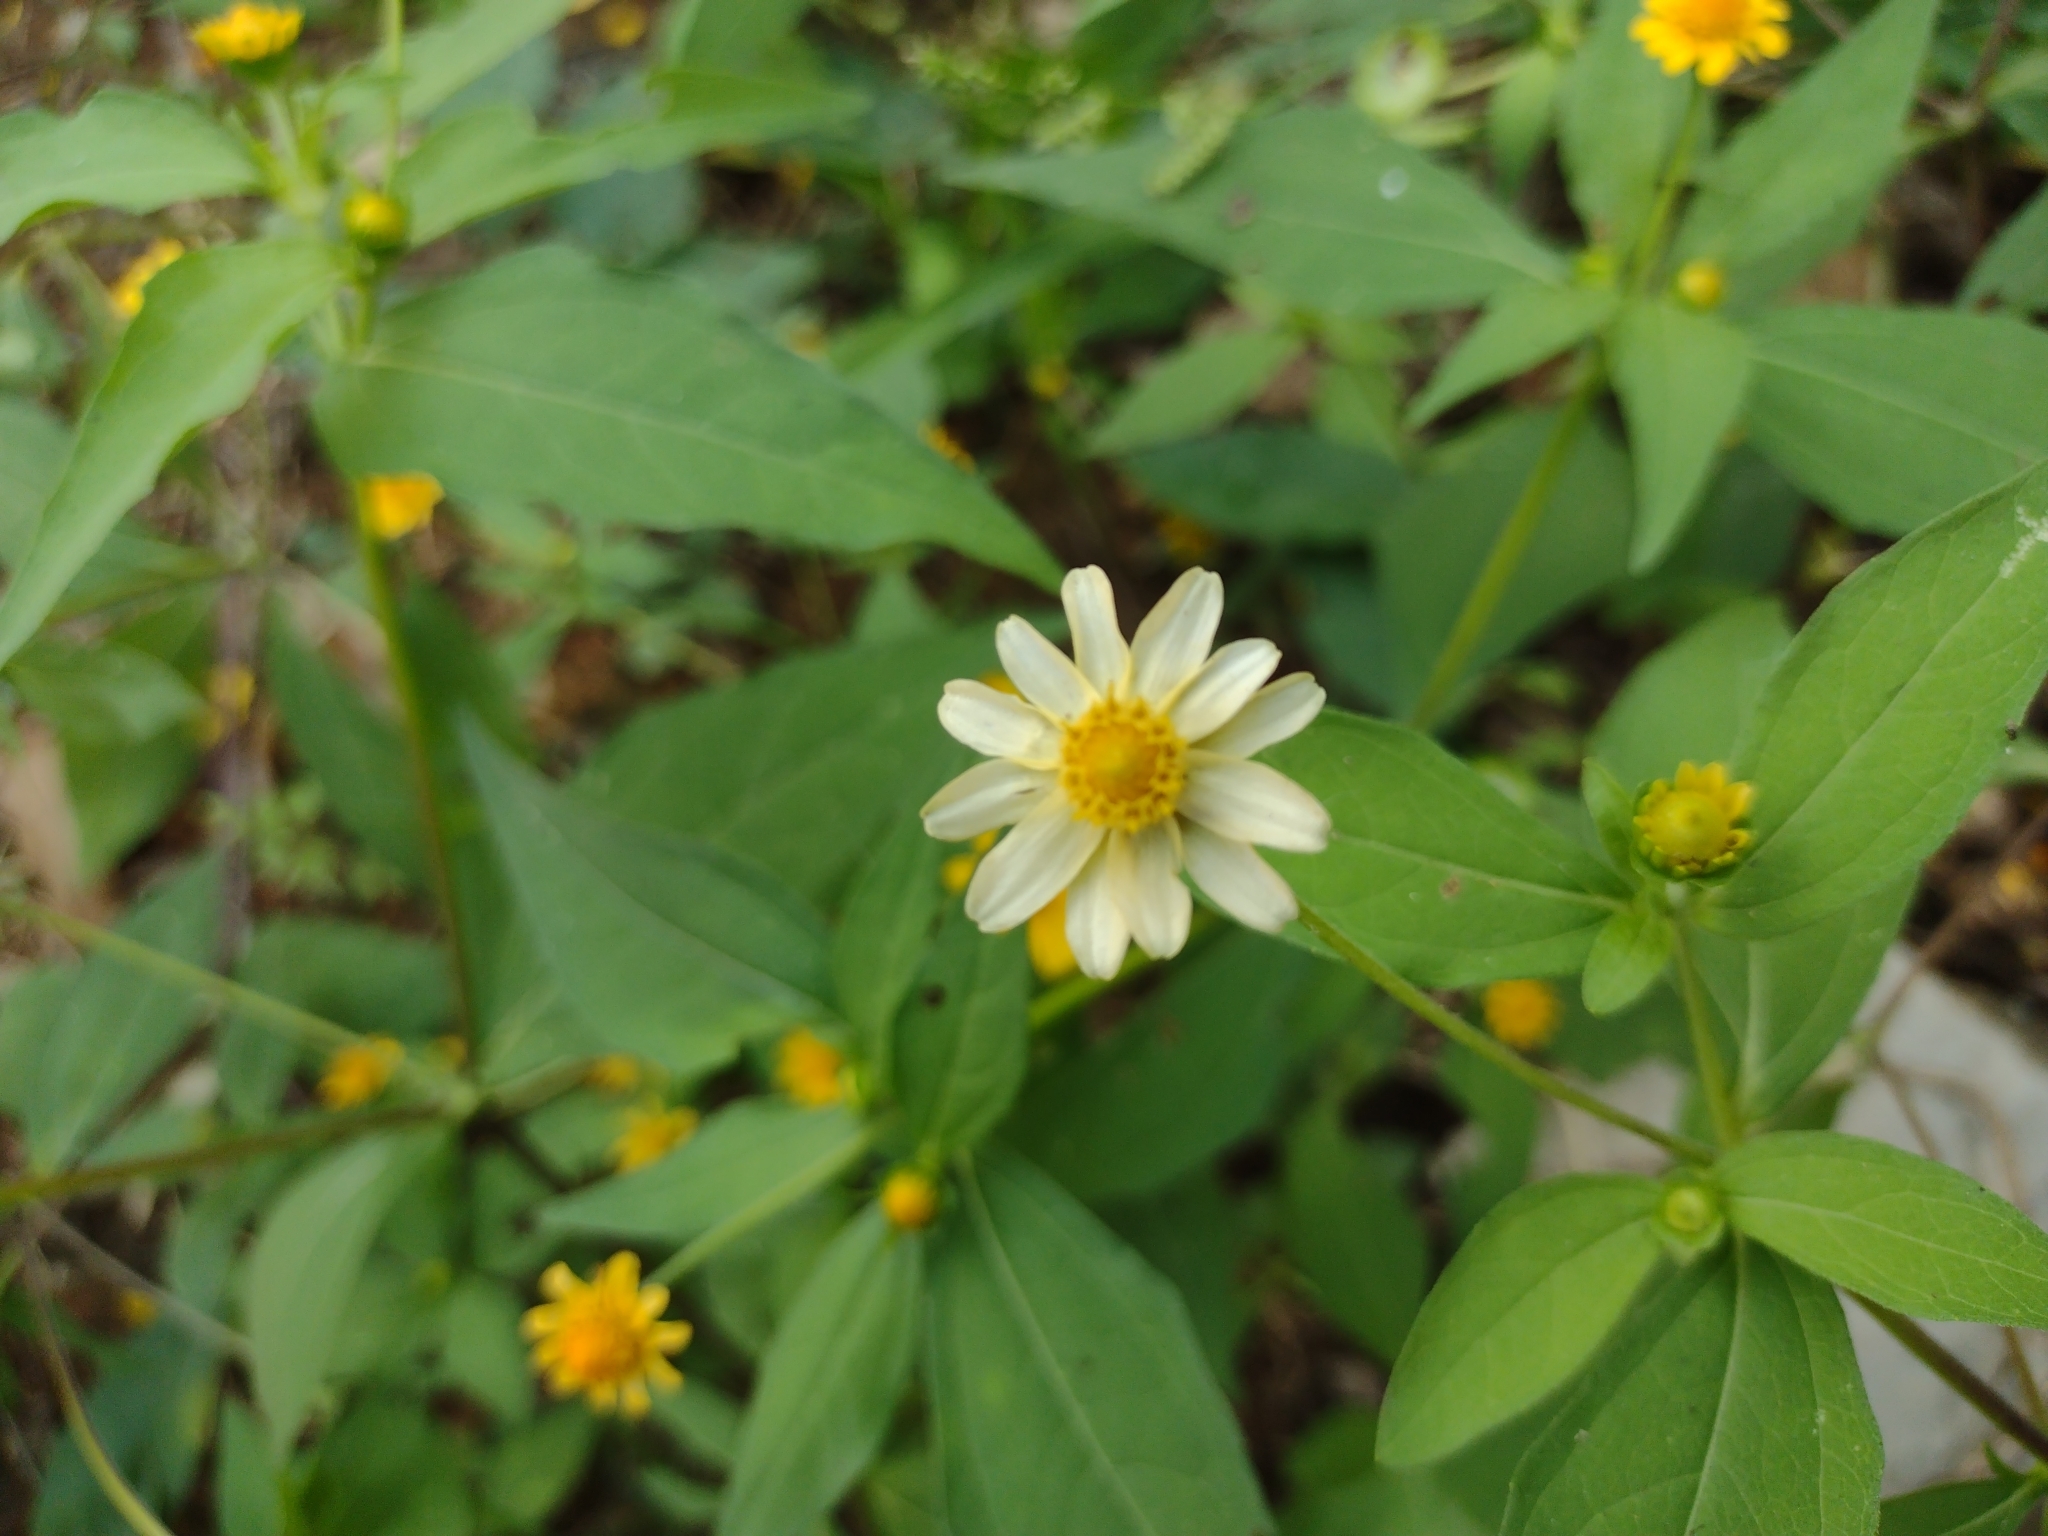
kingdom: Plantae
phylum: Tracheophyta
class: Magnoliopsida
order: Asterales
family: Asteraceae
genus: Melampodium
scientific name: Melampodium divaricatum
